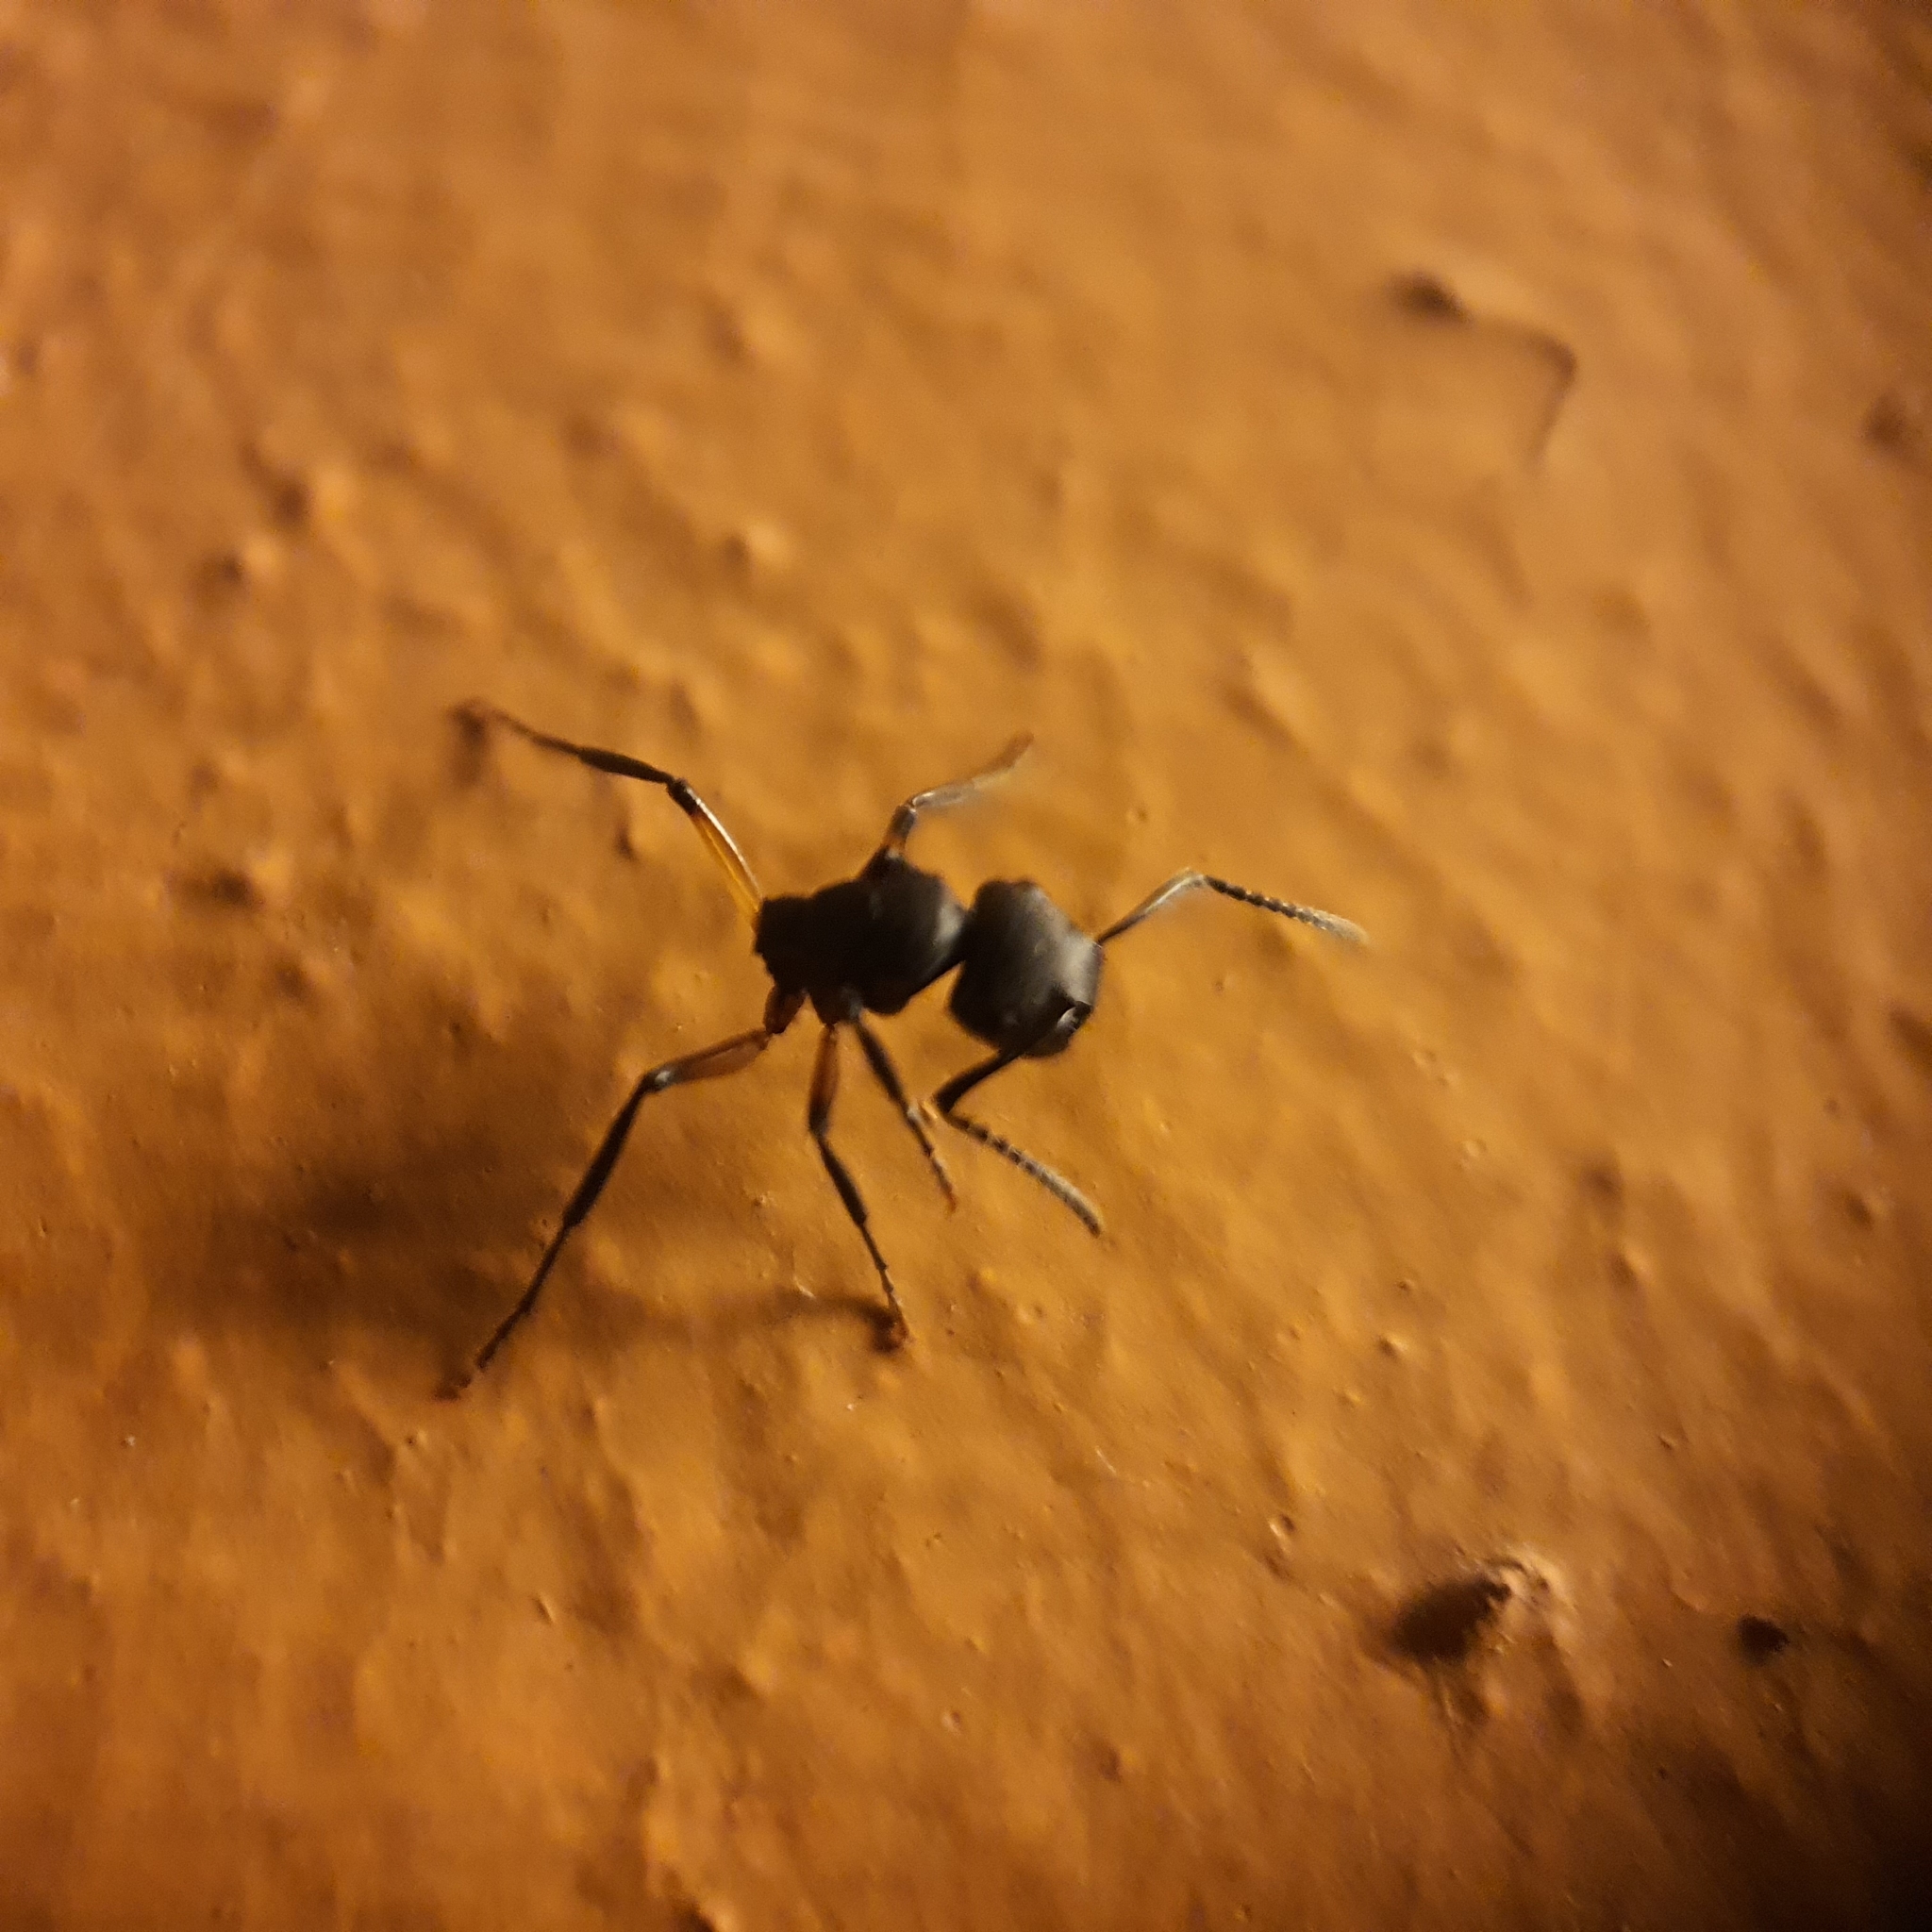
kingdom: Animalia
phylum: Arthropoda
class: Insecta
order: Hymenoptera
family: Formicidae
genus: Polyrhachis
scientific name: Polyrhachis femorata
